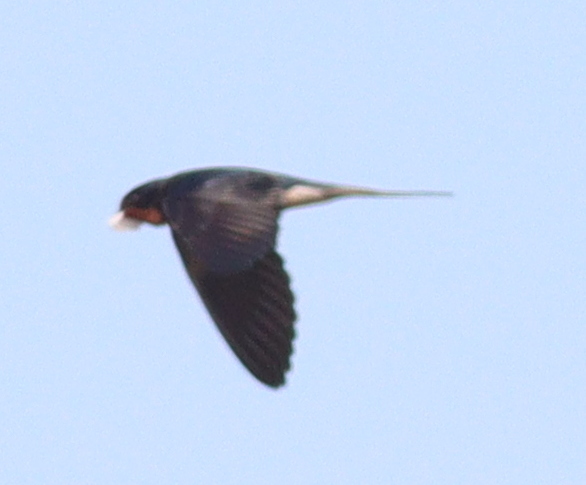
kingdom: Animalia
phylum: Chordata
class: Aves
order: Passeriformes
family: Hirundinidae
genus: Hirundo
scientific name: Hirundo rustica
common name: Barn swallow
